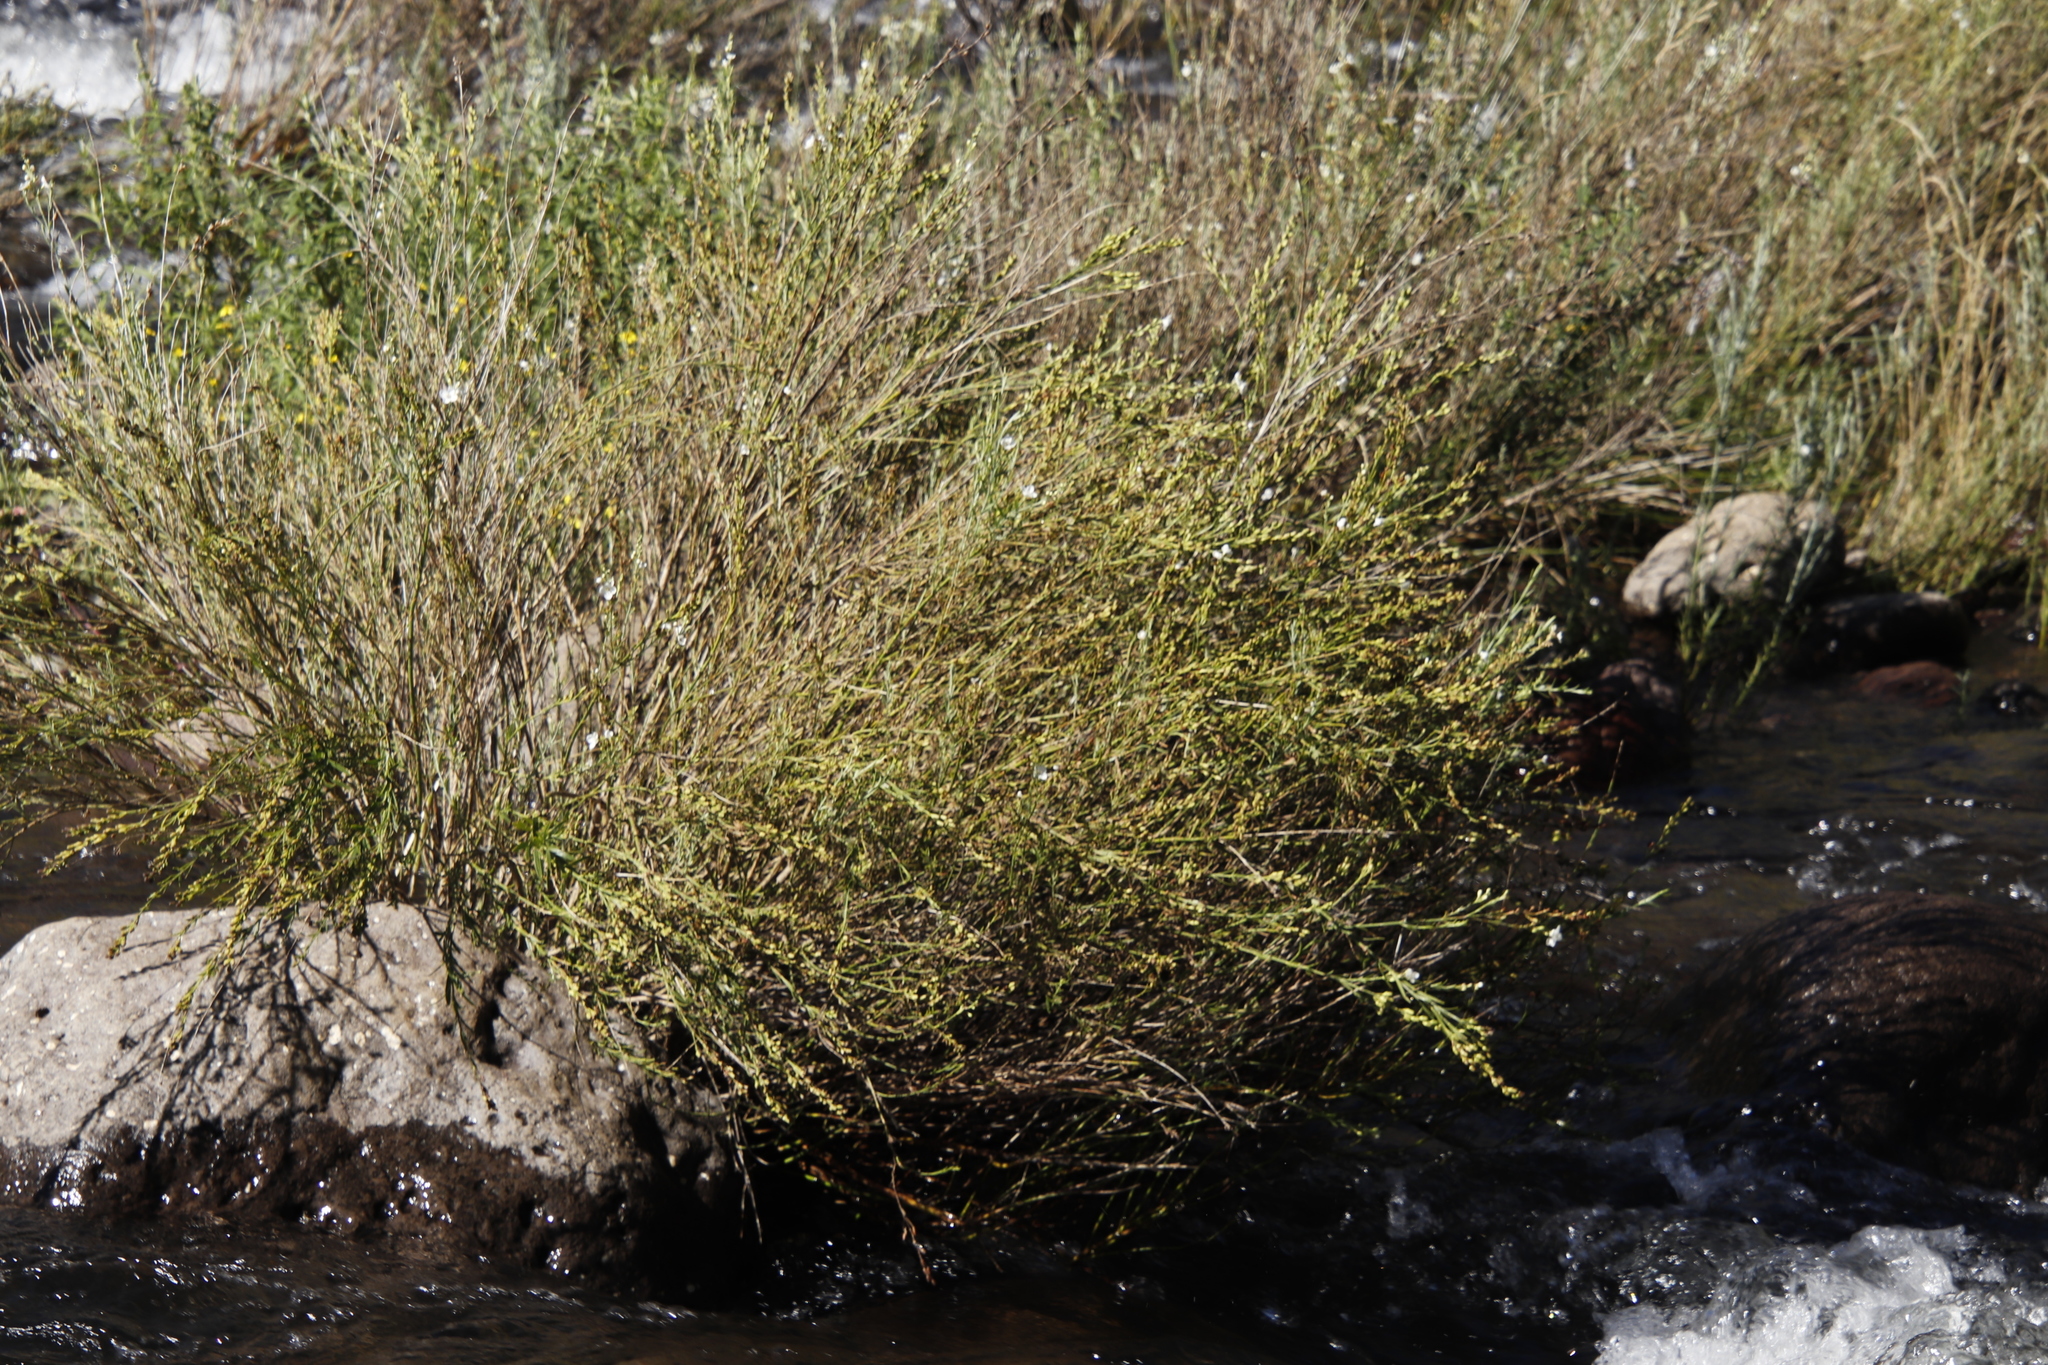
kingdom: Plantae
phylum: Tracheophyta
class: Magnoliopsida
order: Lamiales
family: Scrophulariaceae
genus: Buddleja
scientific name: Buddleja virgata
